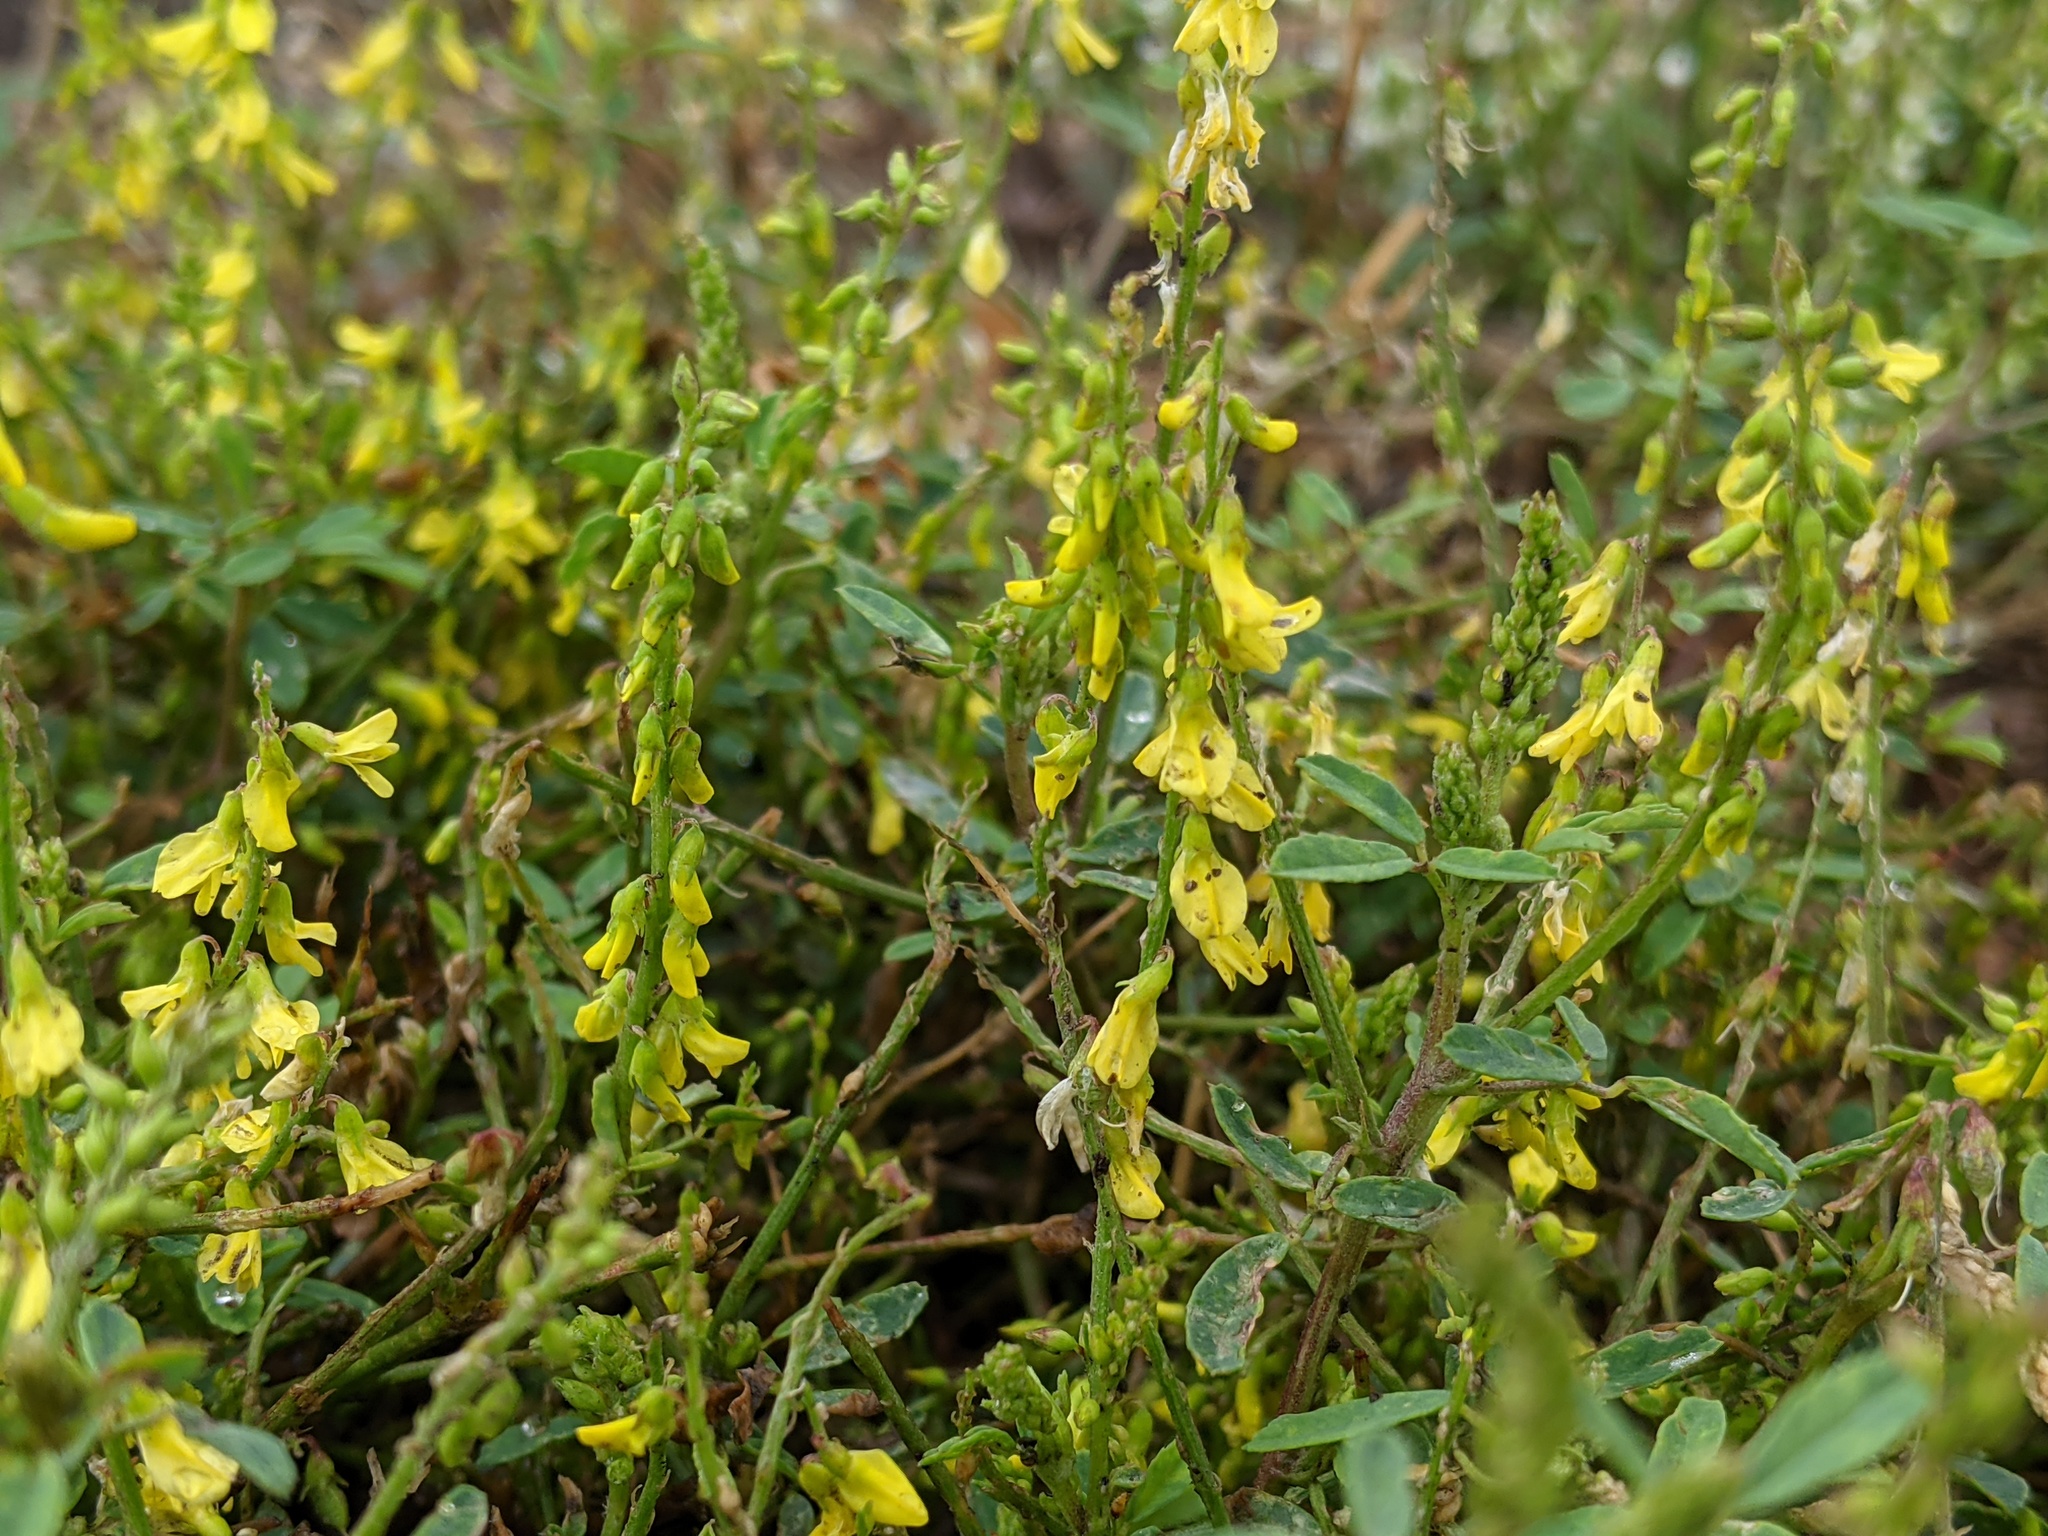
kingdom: Plantae
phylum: Tracheophyta
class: Magnoliopsida
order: Fabales
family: Fabaceae
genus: Melilotus
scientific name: Melilotus officinalis
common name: Sweetclover
